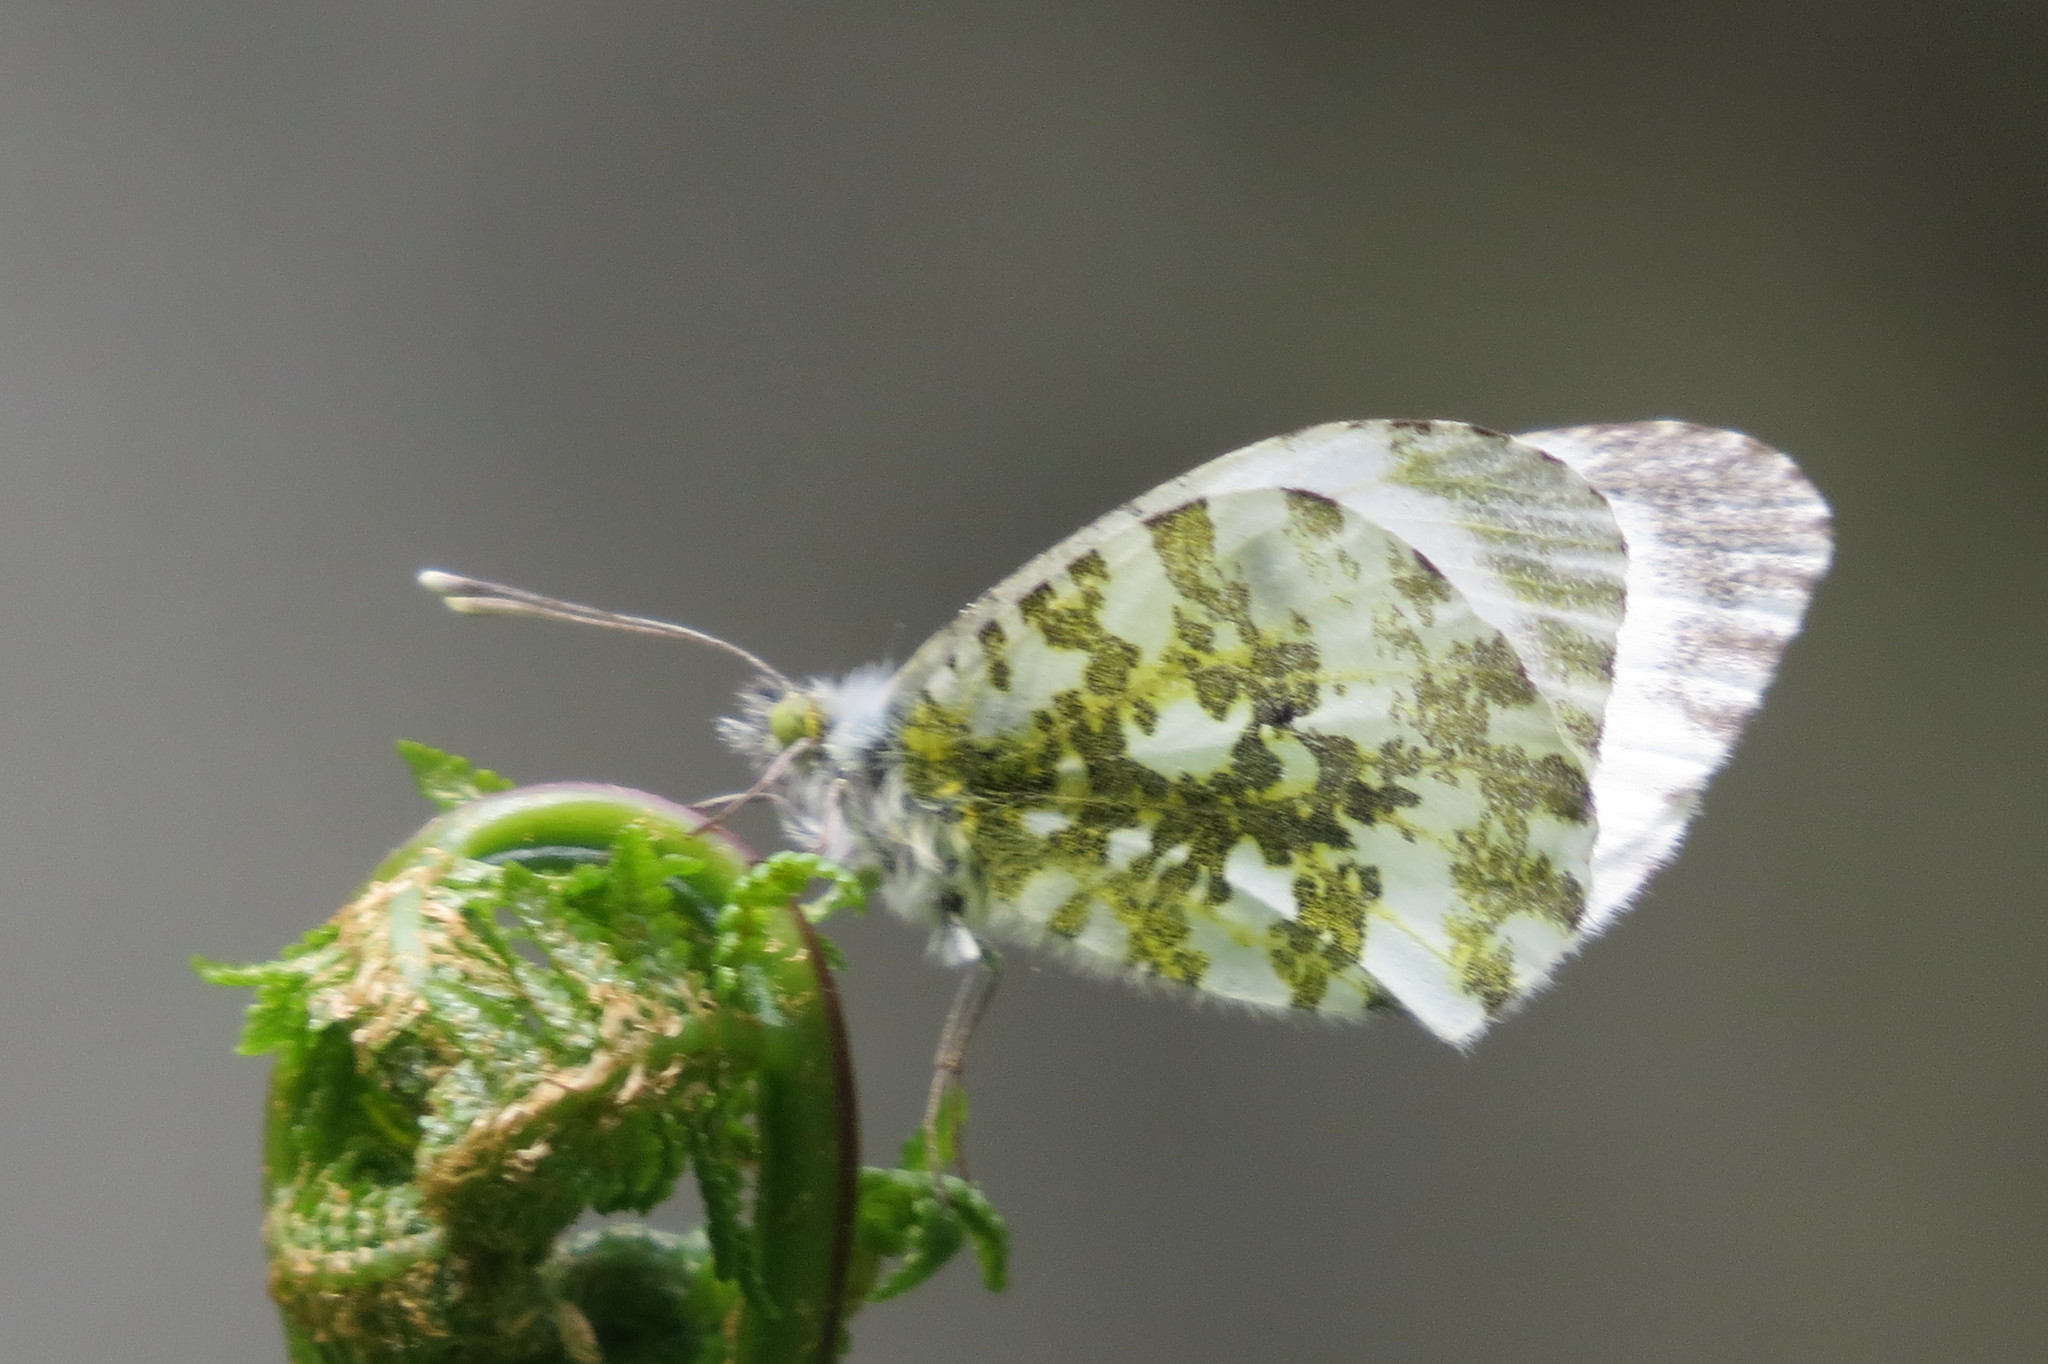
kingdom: Animalia
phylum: Arthropoda
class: Insecta
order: Lepidoptera
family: Pieridae
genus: Anthocharis
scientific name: Anthocharis cardamines
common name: Orange-tip
